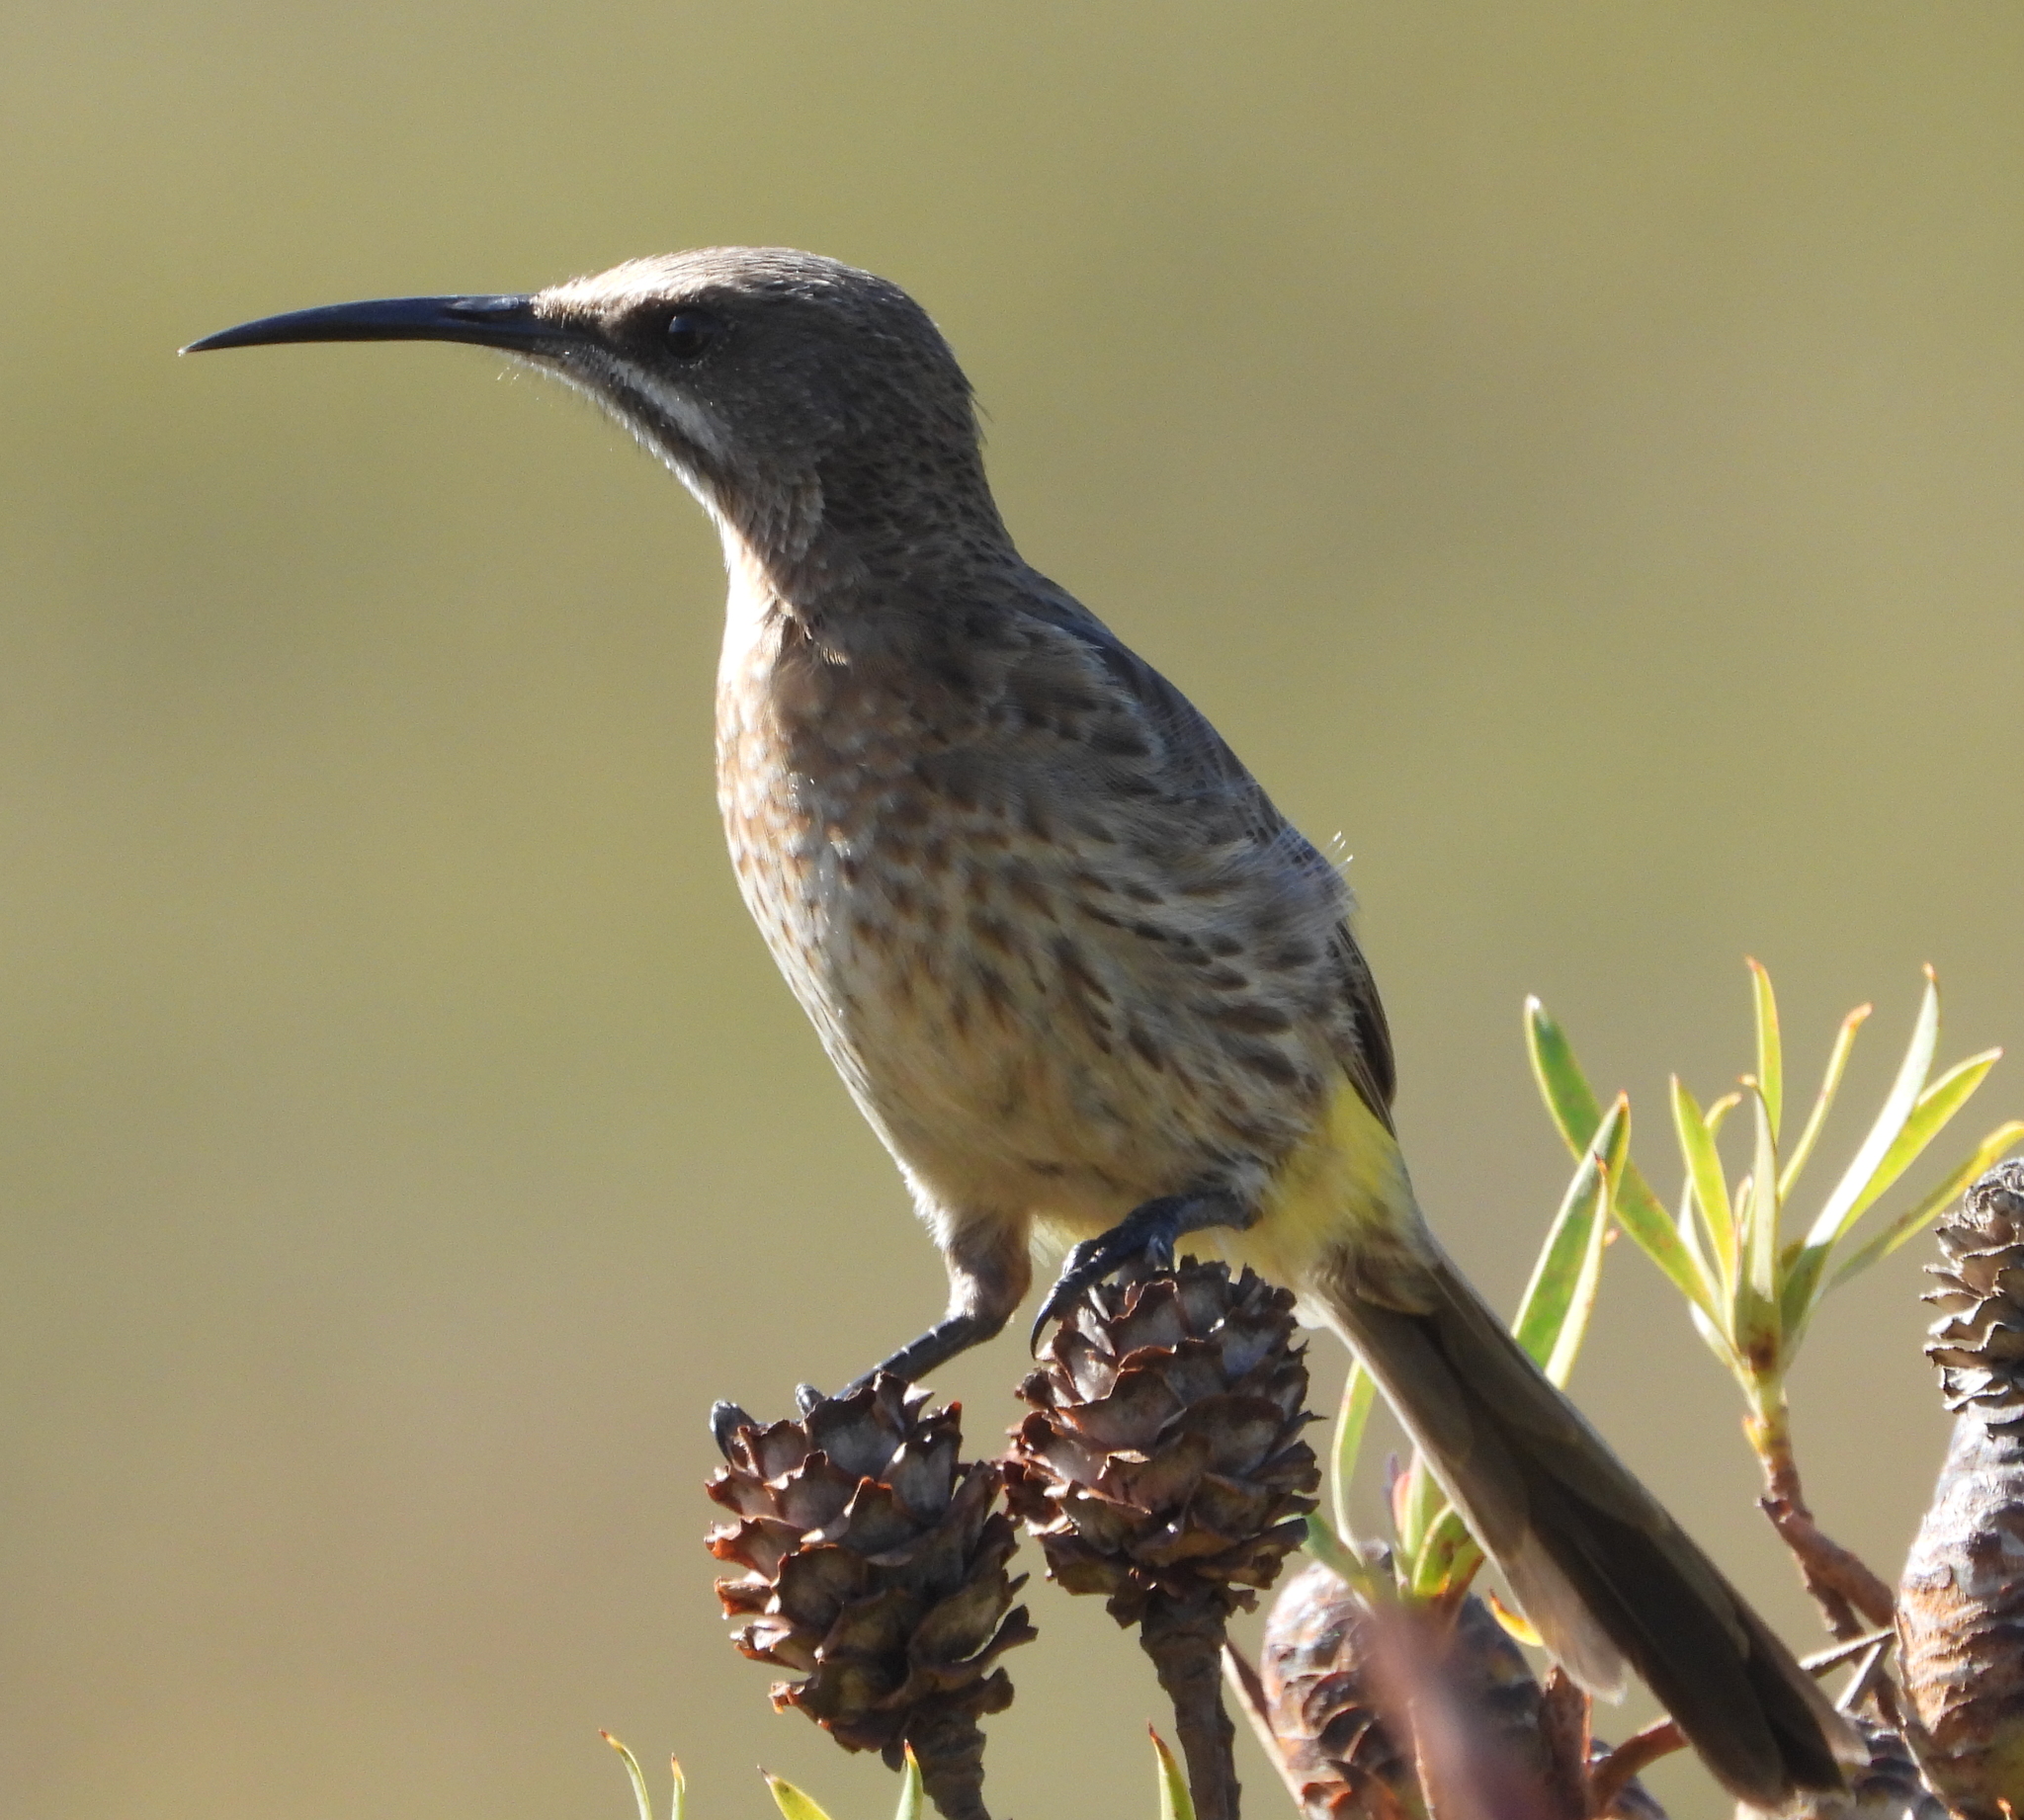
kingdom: Animalia
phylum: Chordata
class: Aves
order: Passeriformes
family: Promeropidae
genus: Promerops
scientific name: Promerops cafer
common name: Cape sugarbird
